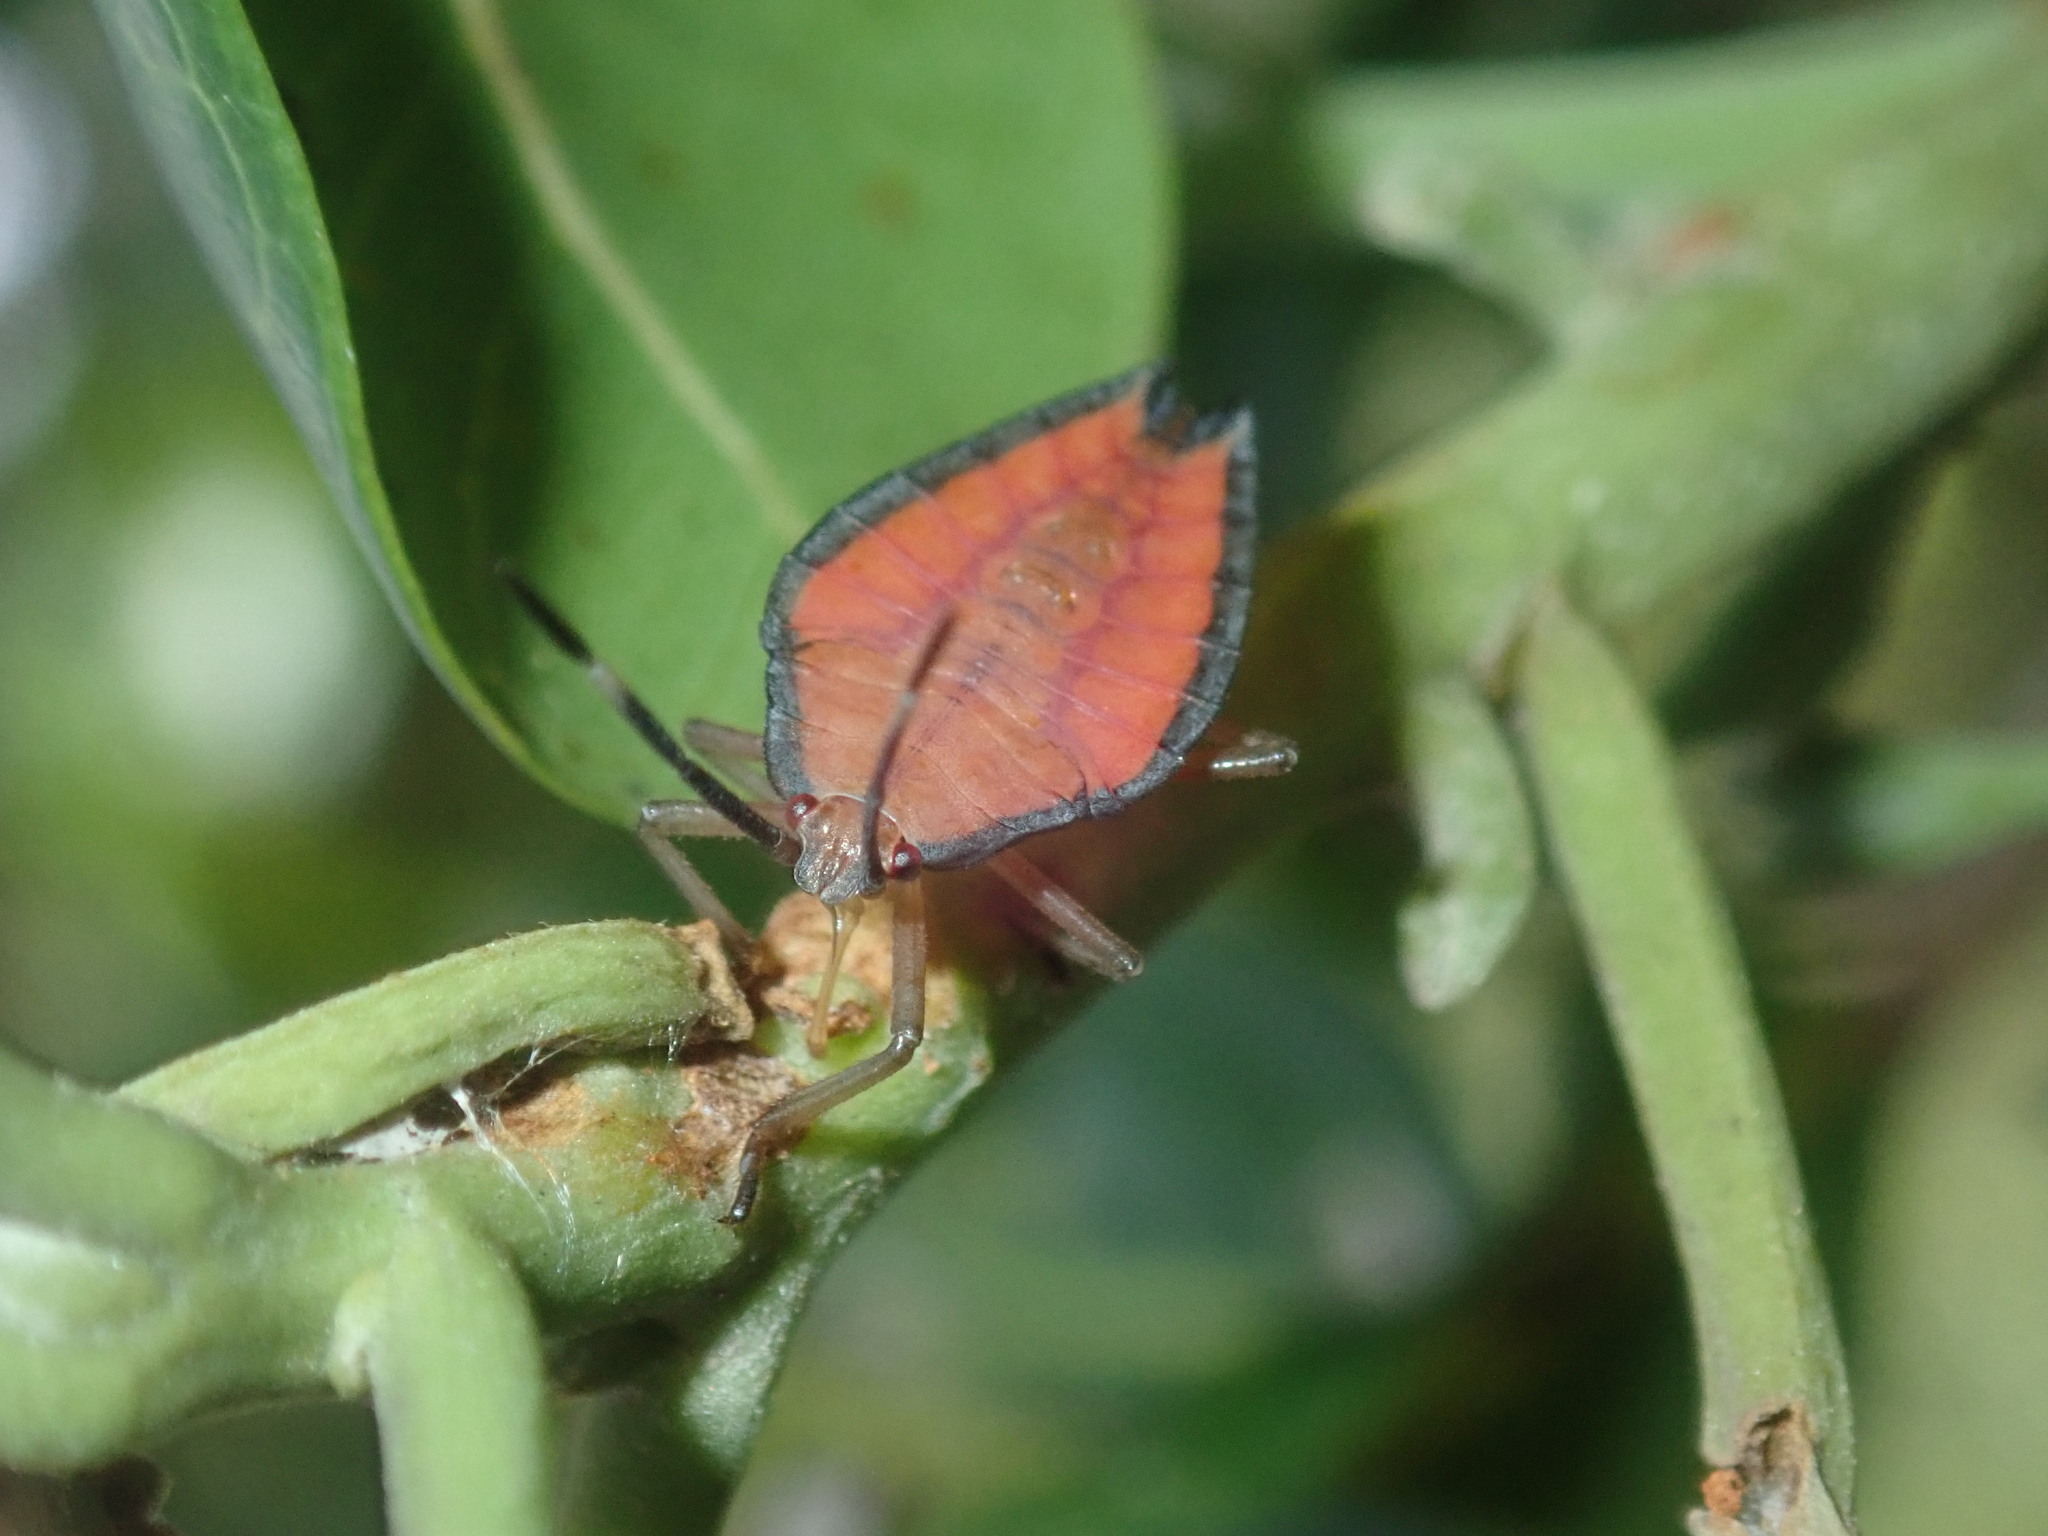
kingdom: Animalia
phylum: Arthropoda
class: Insecta
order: Hemiptera
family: Tessaratomidae
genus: Lyramorpha
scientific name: Lyramorpha rosea
